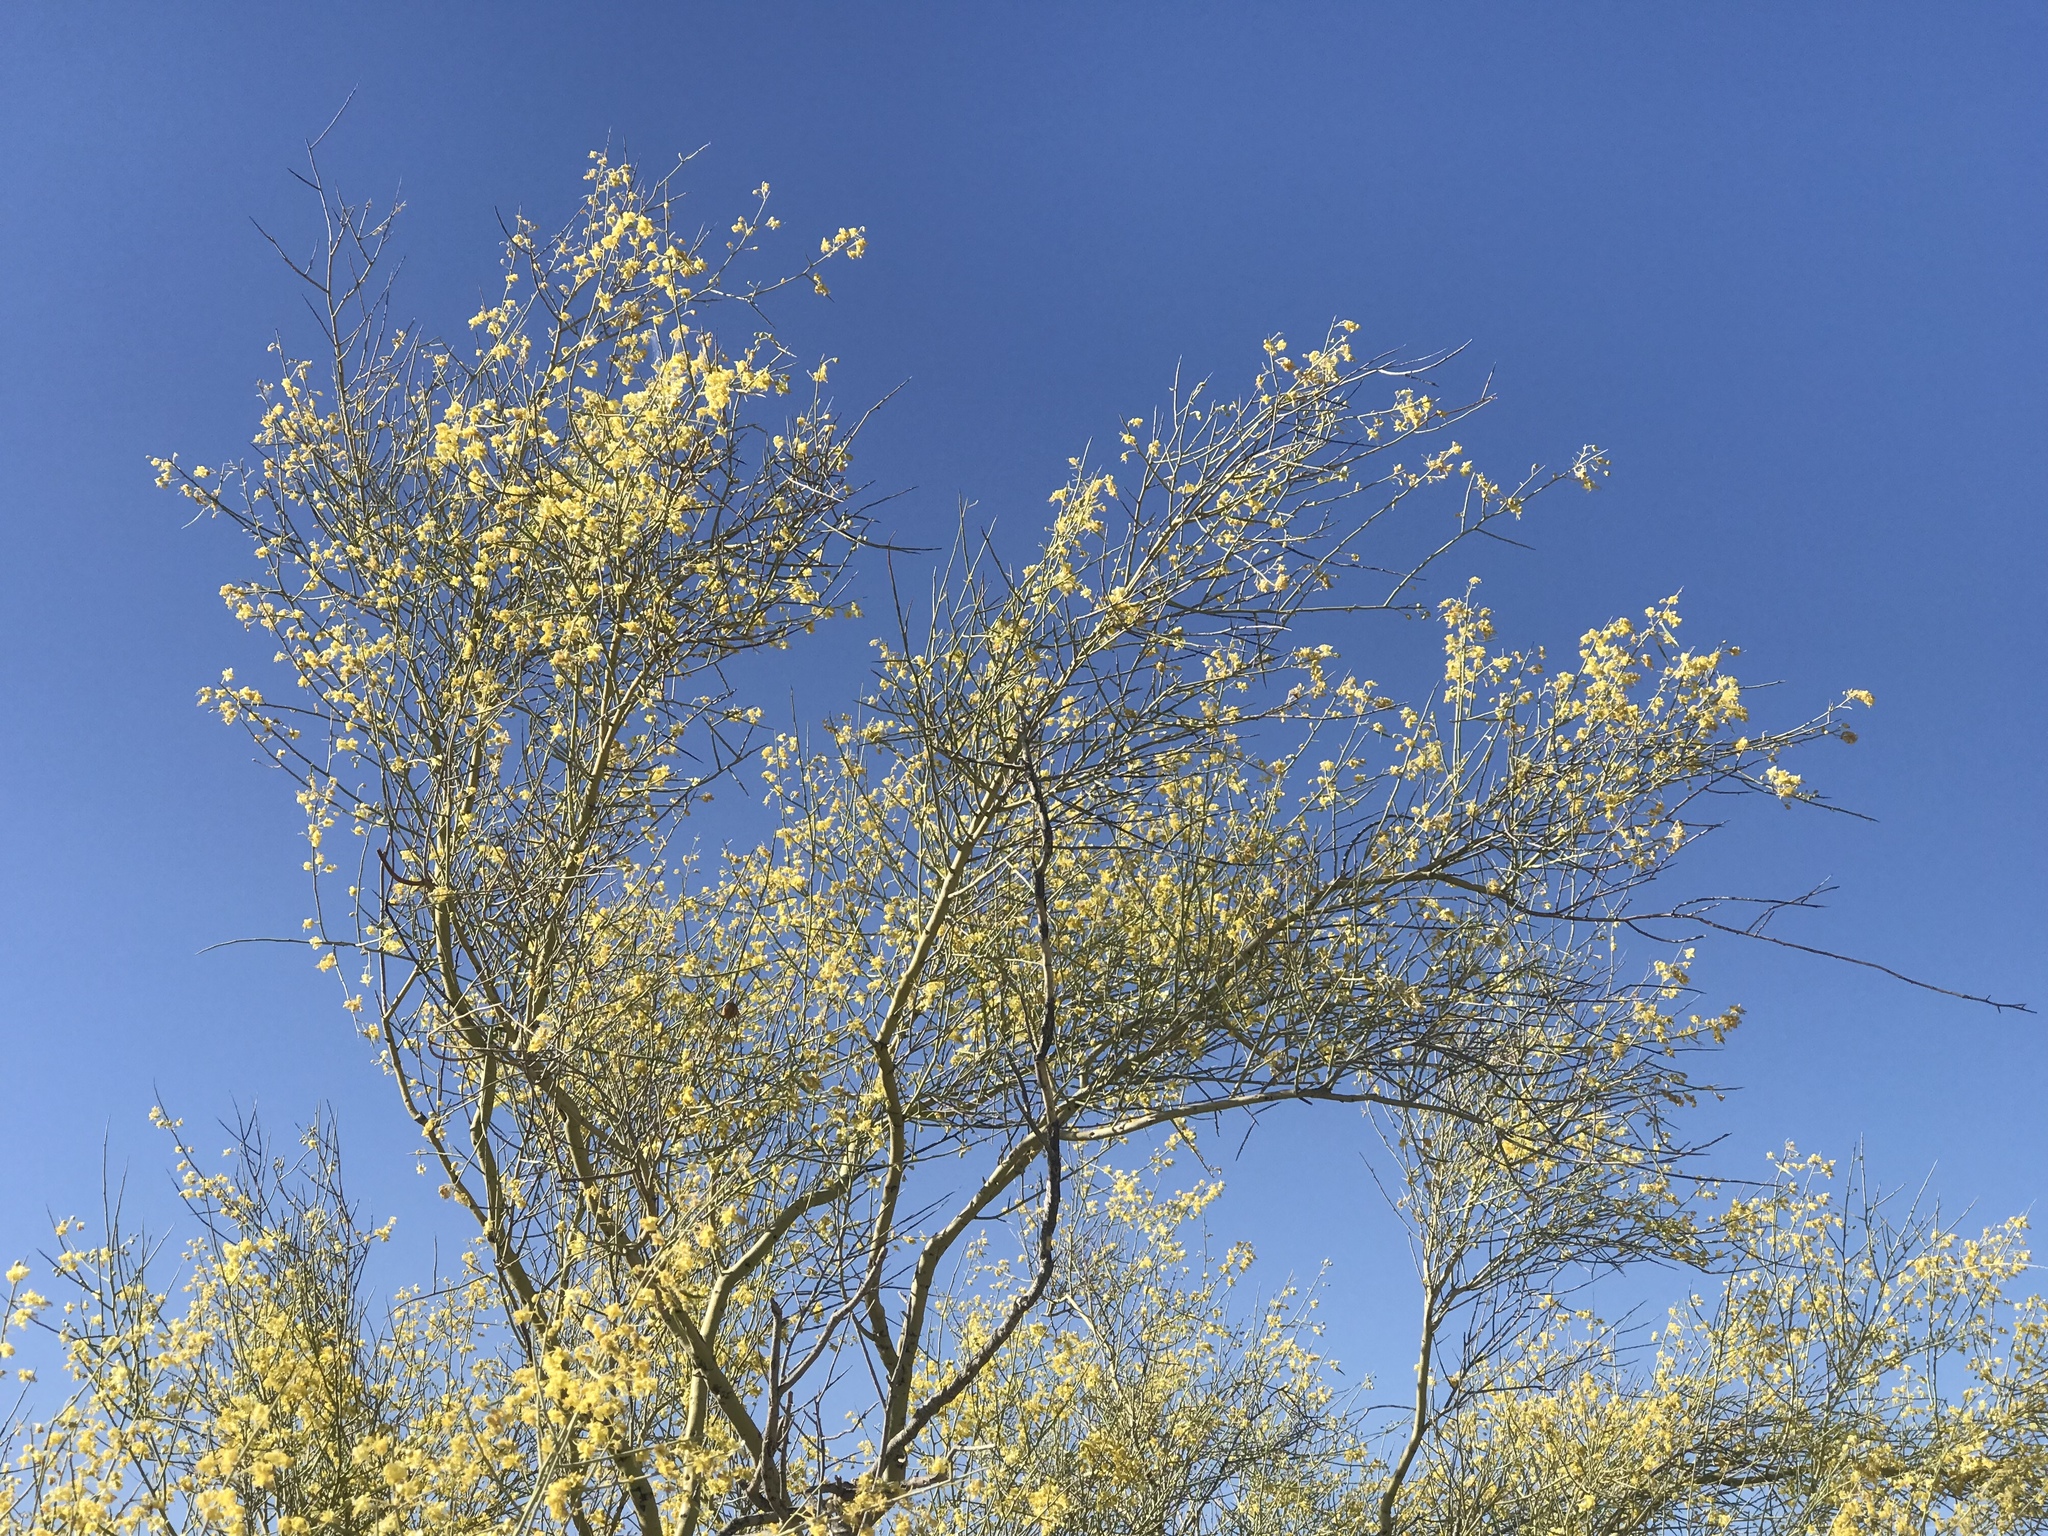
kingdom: Plantae
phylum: Tracheophyta
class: Magnoliopsida
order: Fabales
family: Fabaceae
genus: Parkinsonia
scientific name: Parkinsonia microphylla
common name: Yellow paloverde
